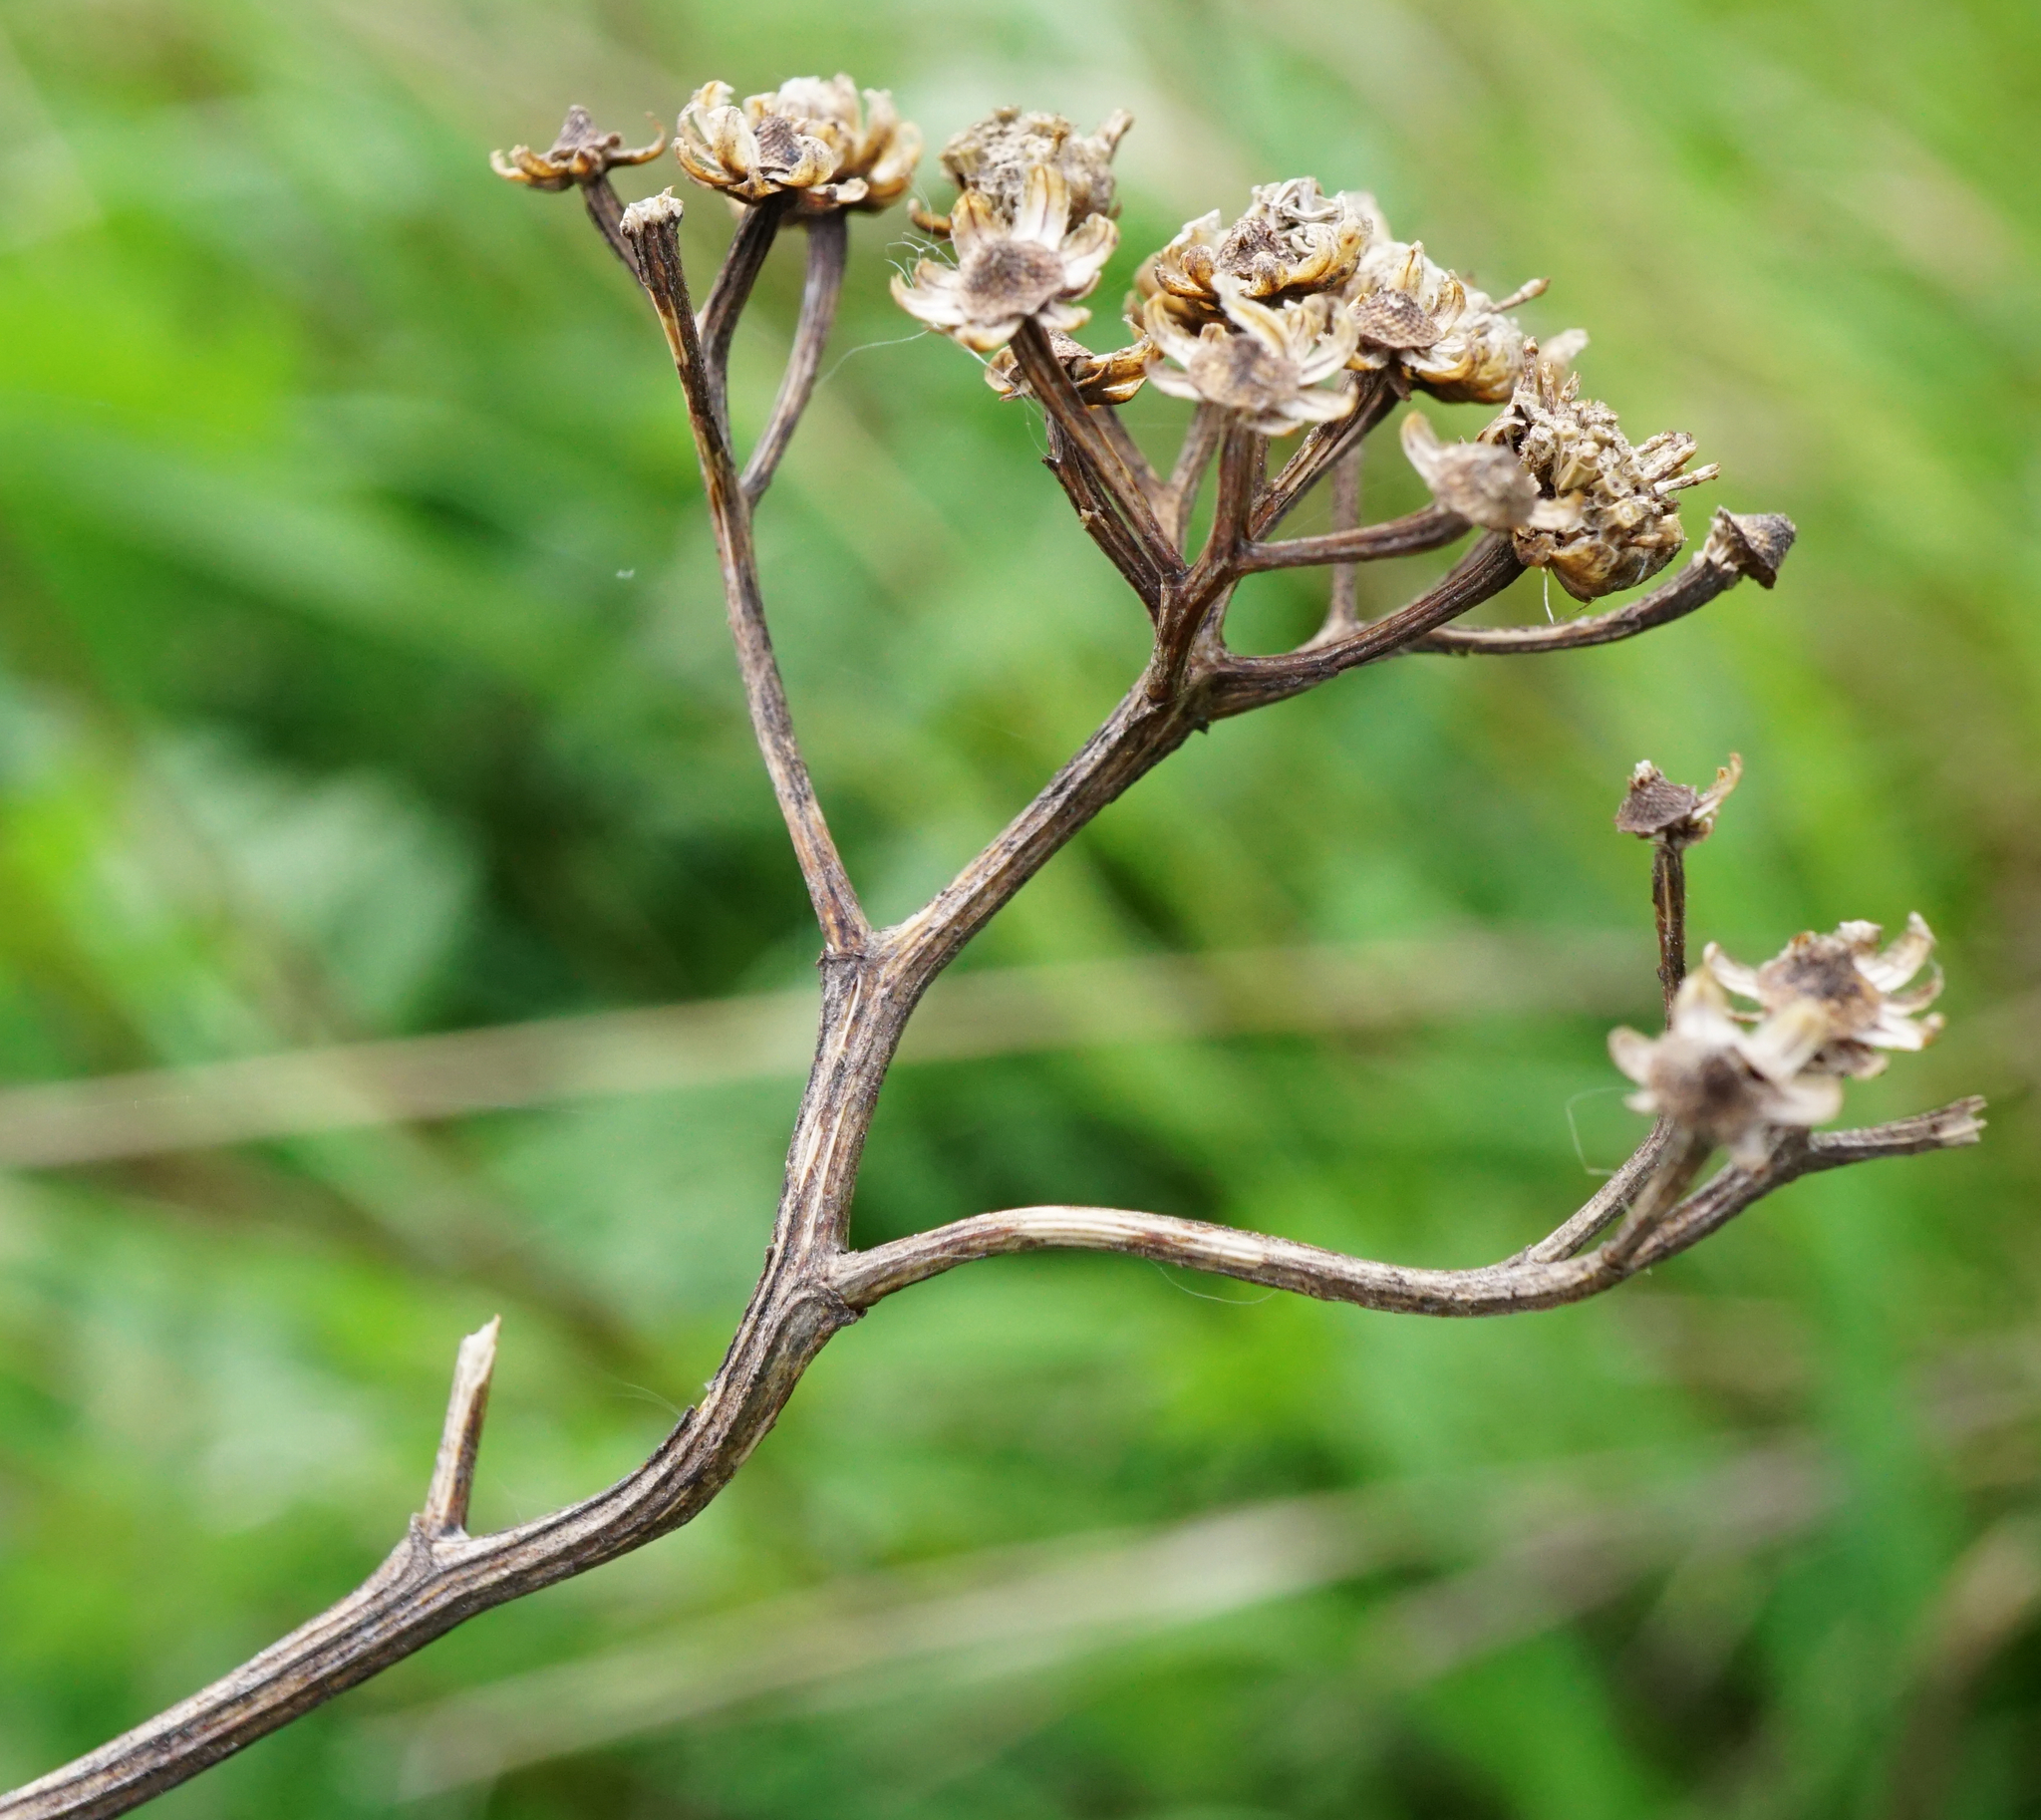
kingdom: Plantae
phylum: Tracheophyta
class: Magnoliopsida
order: Asterales
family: Asteraceae
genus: Tanacetum
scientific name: Tanacetum vulgare
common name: Common tansy
